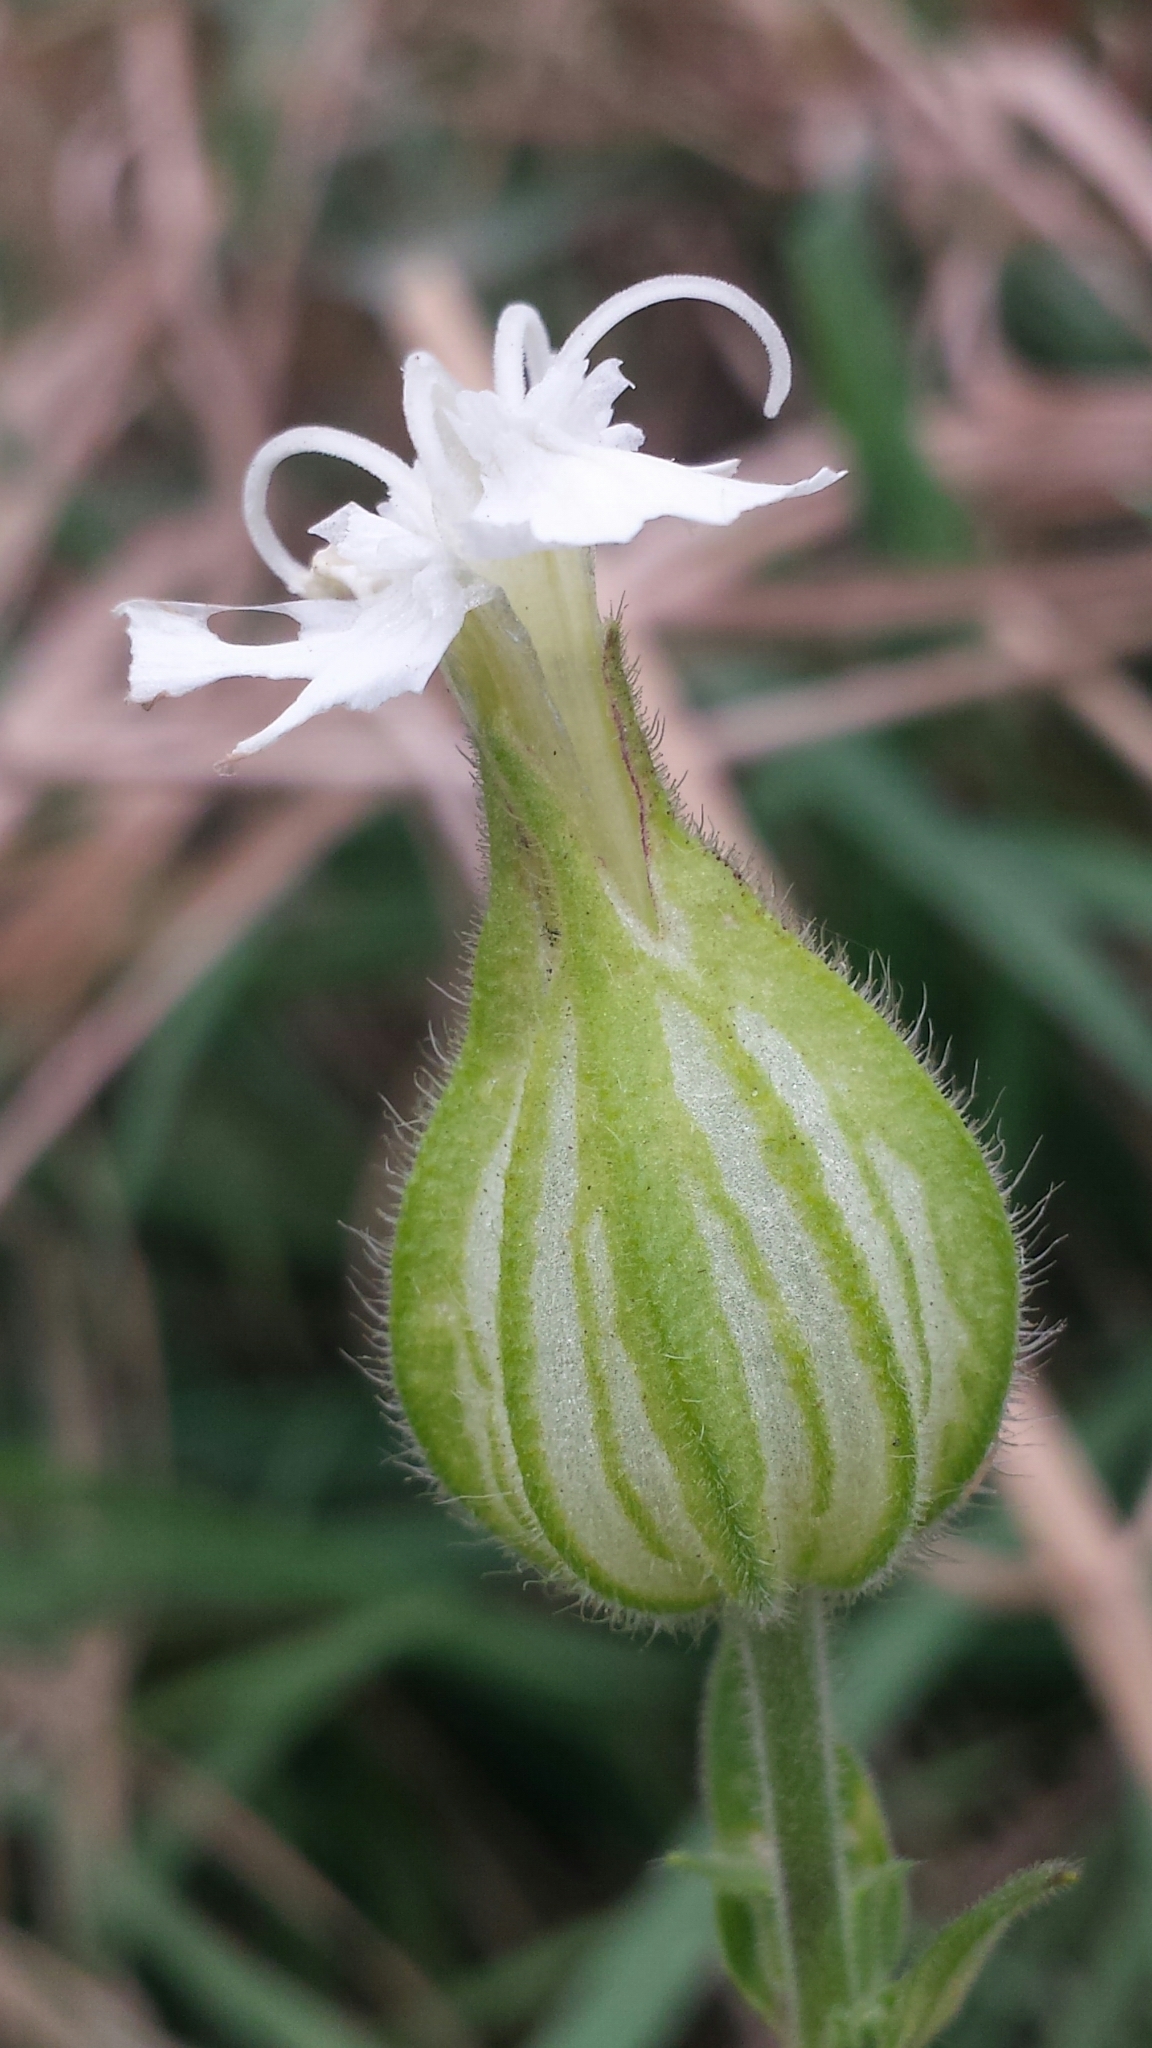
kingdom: Plantae
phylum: Tracheophyta
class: Magnoliopsida
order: Caryophyllales
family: Caryophyllaceae
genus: Silene
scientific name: Silene latifolia
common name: White campion
